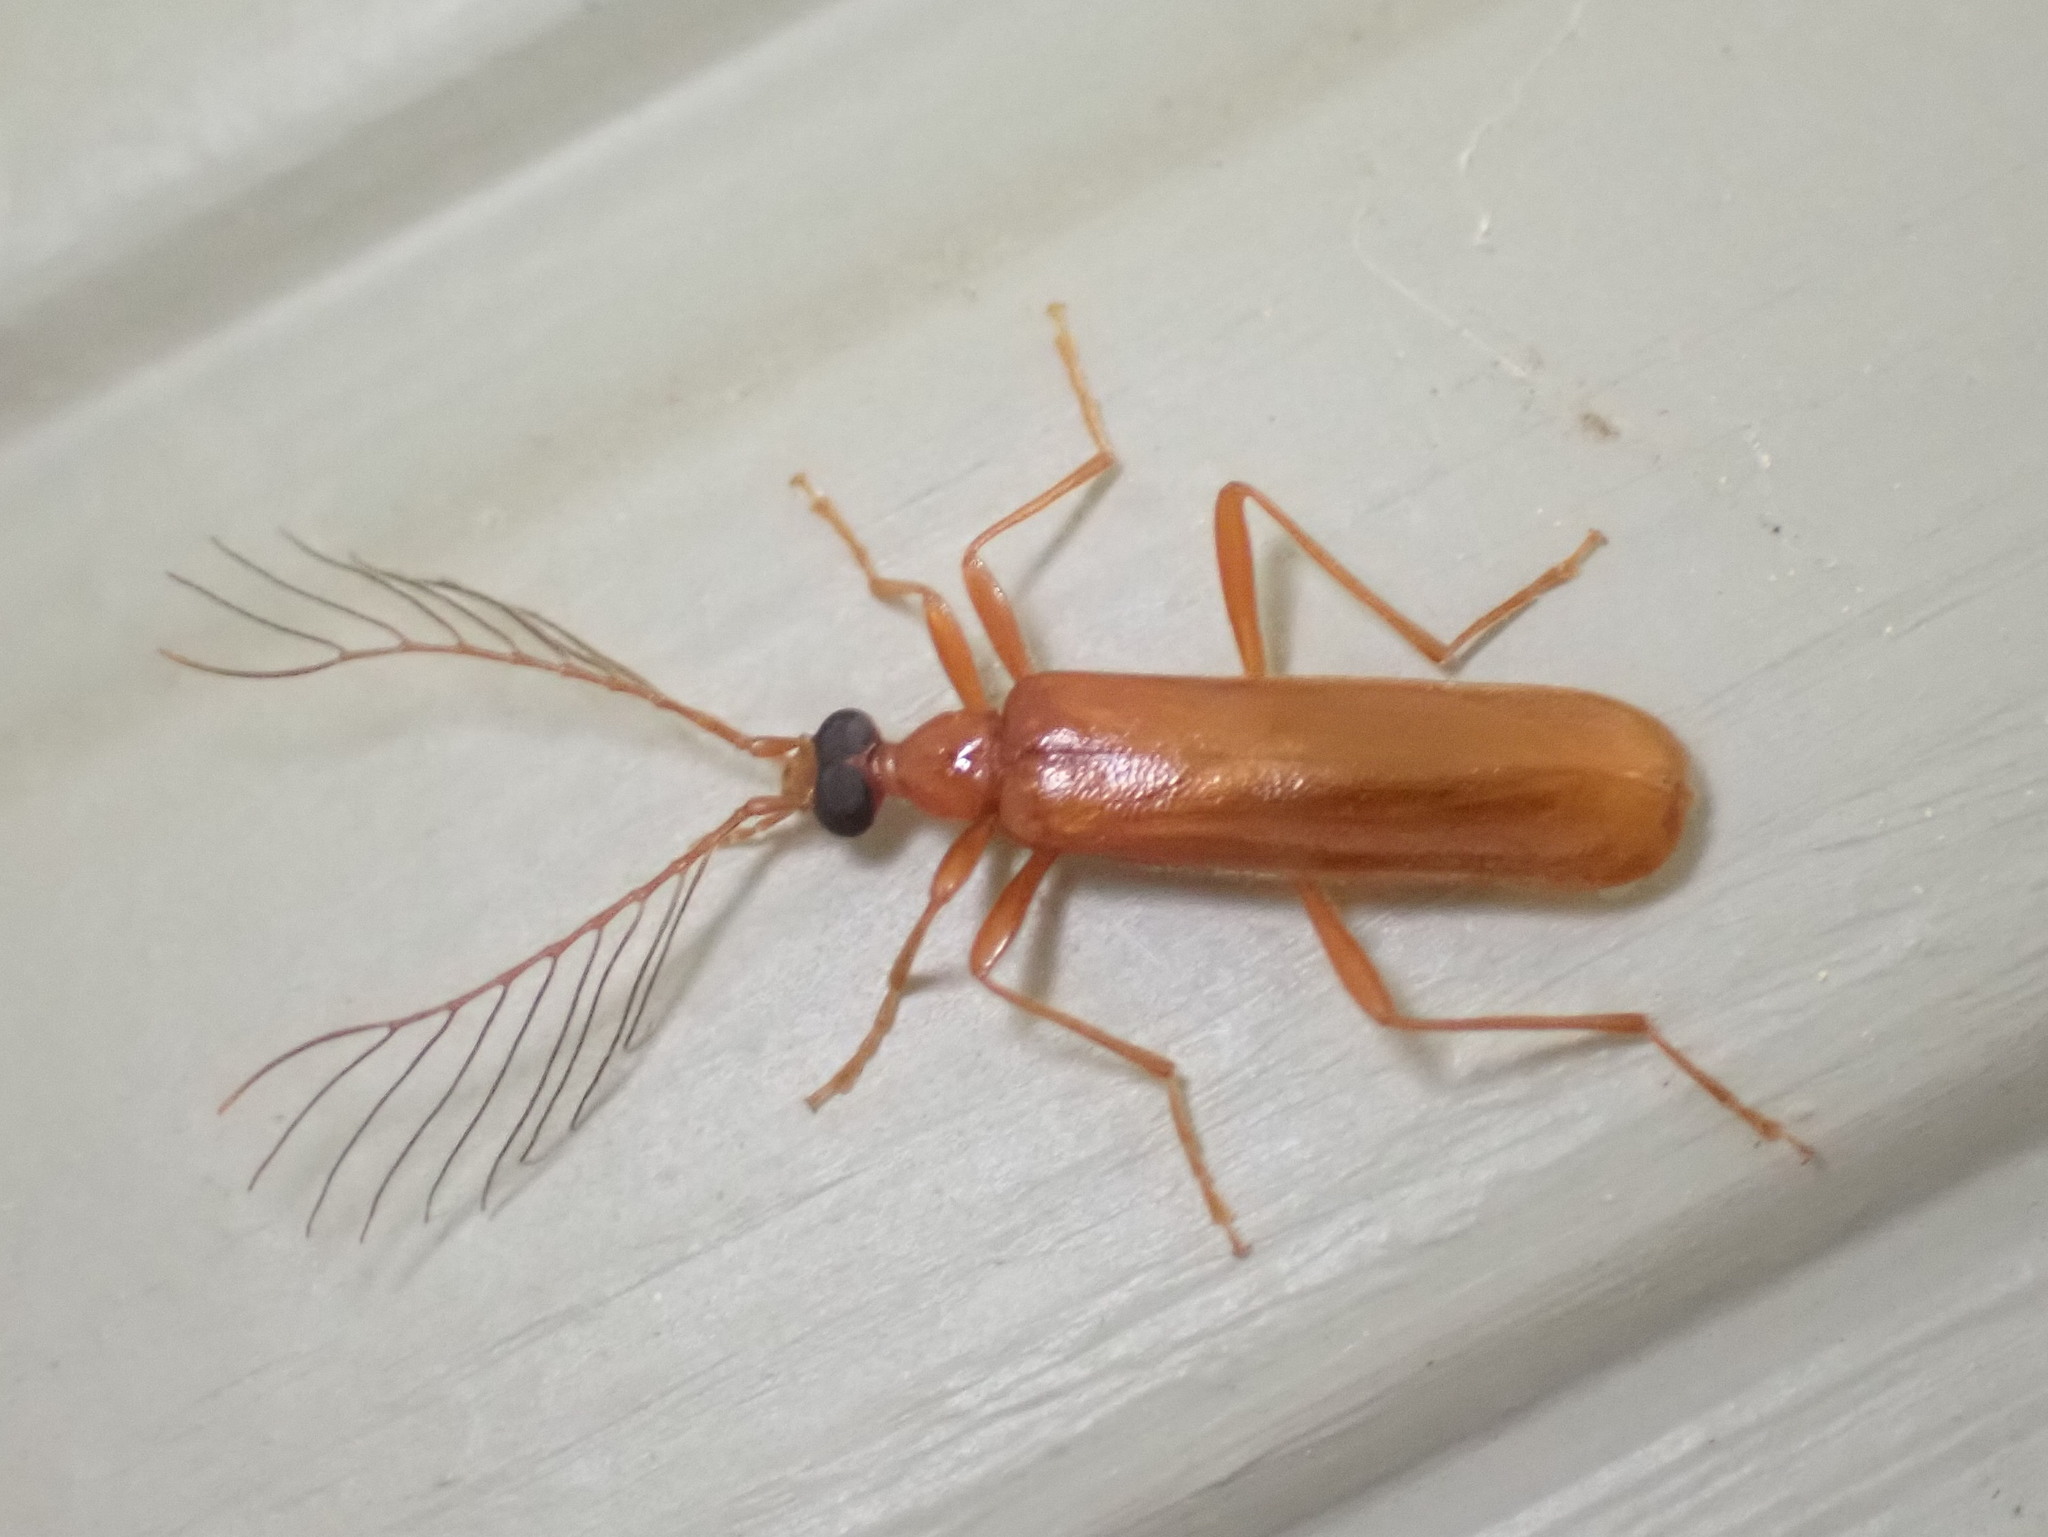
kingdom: Animalia
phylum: Arthropoda
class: Insecta
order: Coleoptera
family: Pyrochroidae
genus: Dendroides
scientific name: Dendroides concolor
